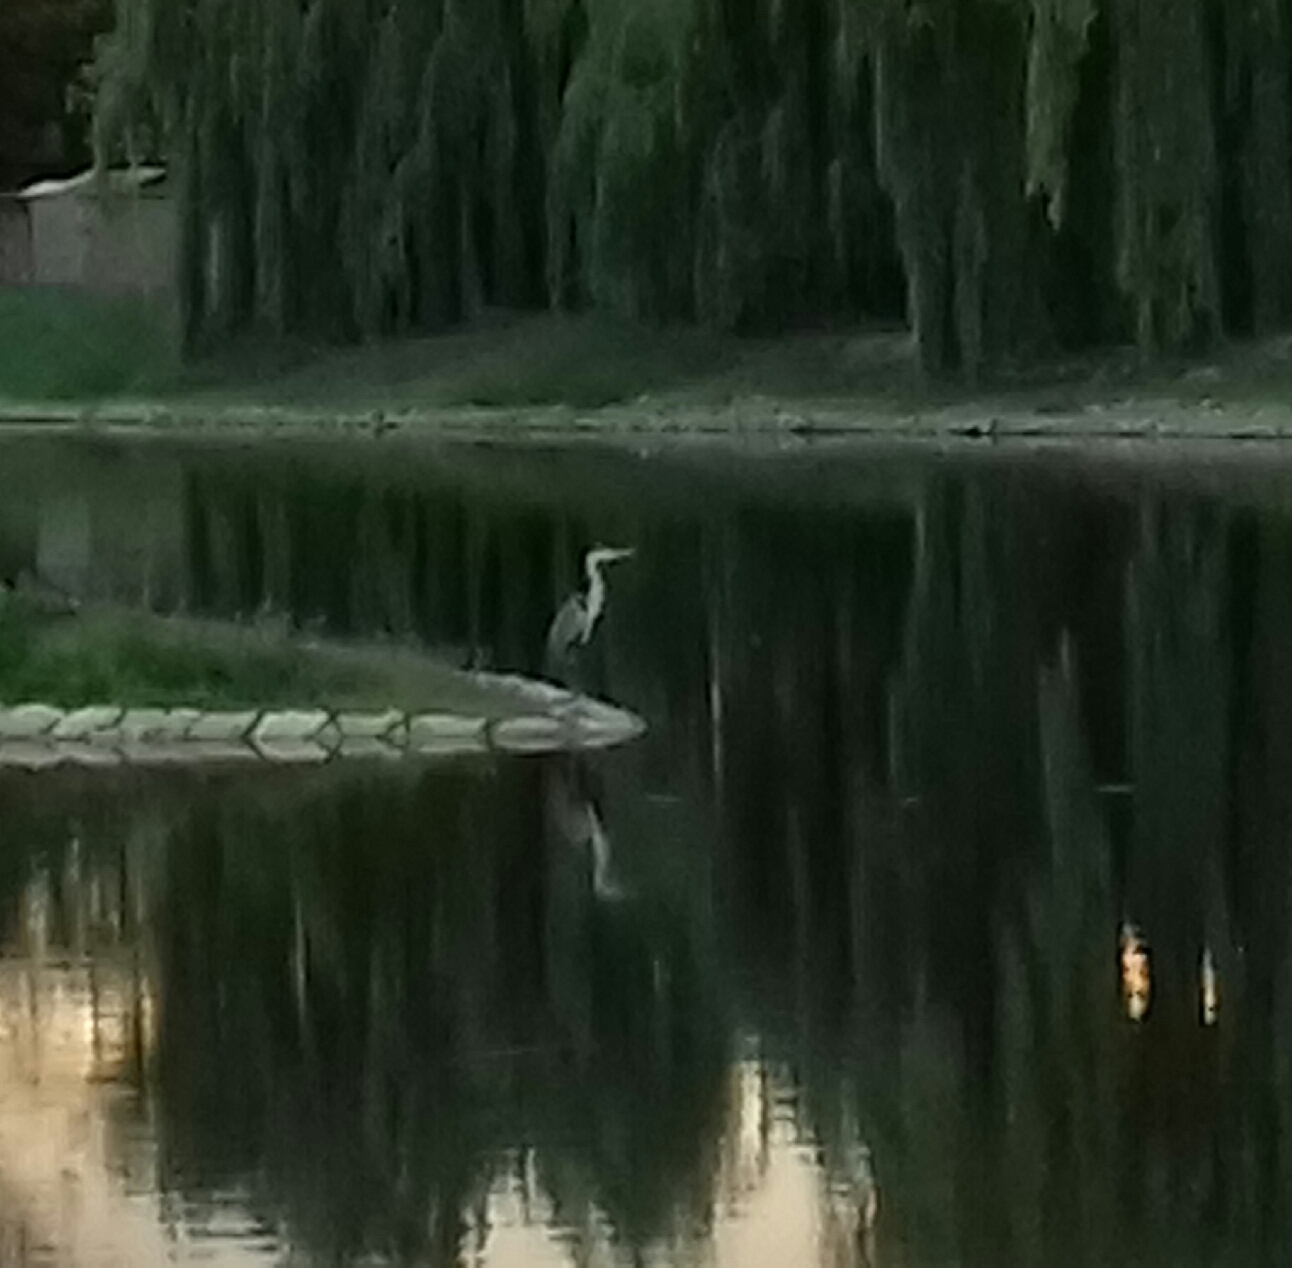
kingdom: Animalia
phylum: Chordata
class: Aves
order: Pelecaniformes
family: Ardeidae
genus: Ardea
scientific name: Ardea cinerea
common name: Grey heron
